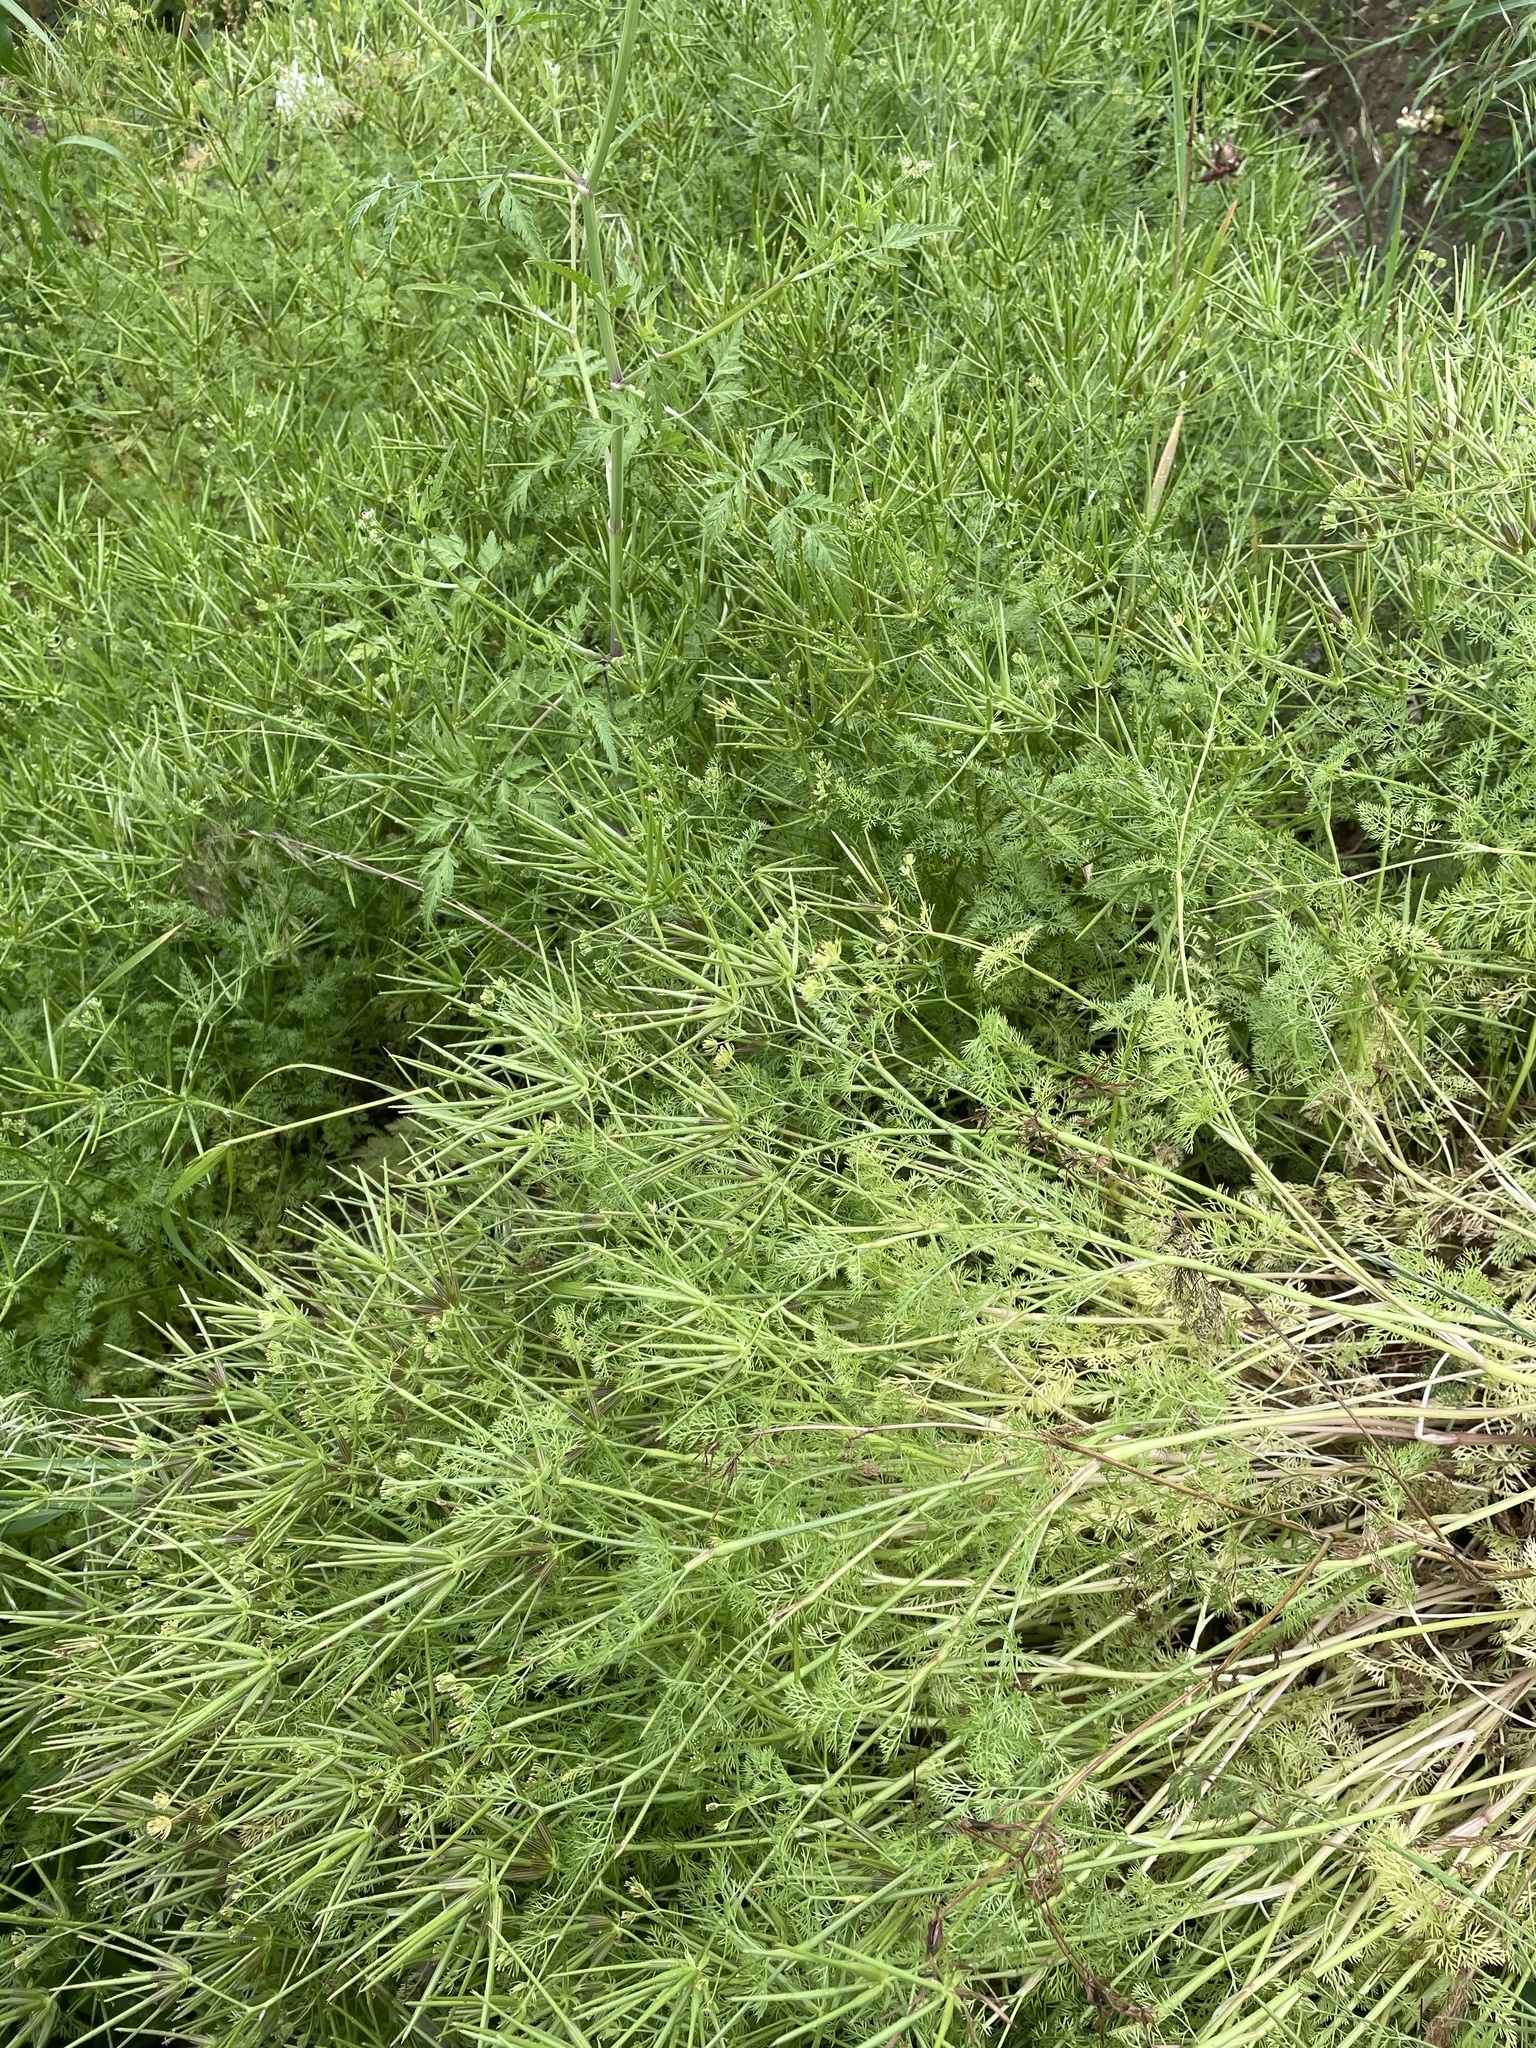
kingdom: Plantae
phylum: Tracheophyta
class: Magnoliopsida
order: Apiales
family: Apiaceae
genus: Scandix
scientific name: Scandix pecten-veneris
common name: Shepherd's-needle
